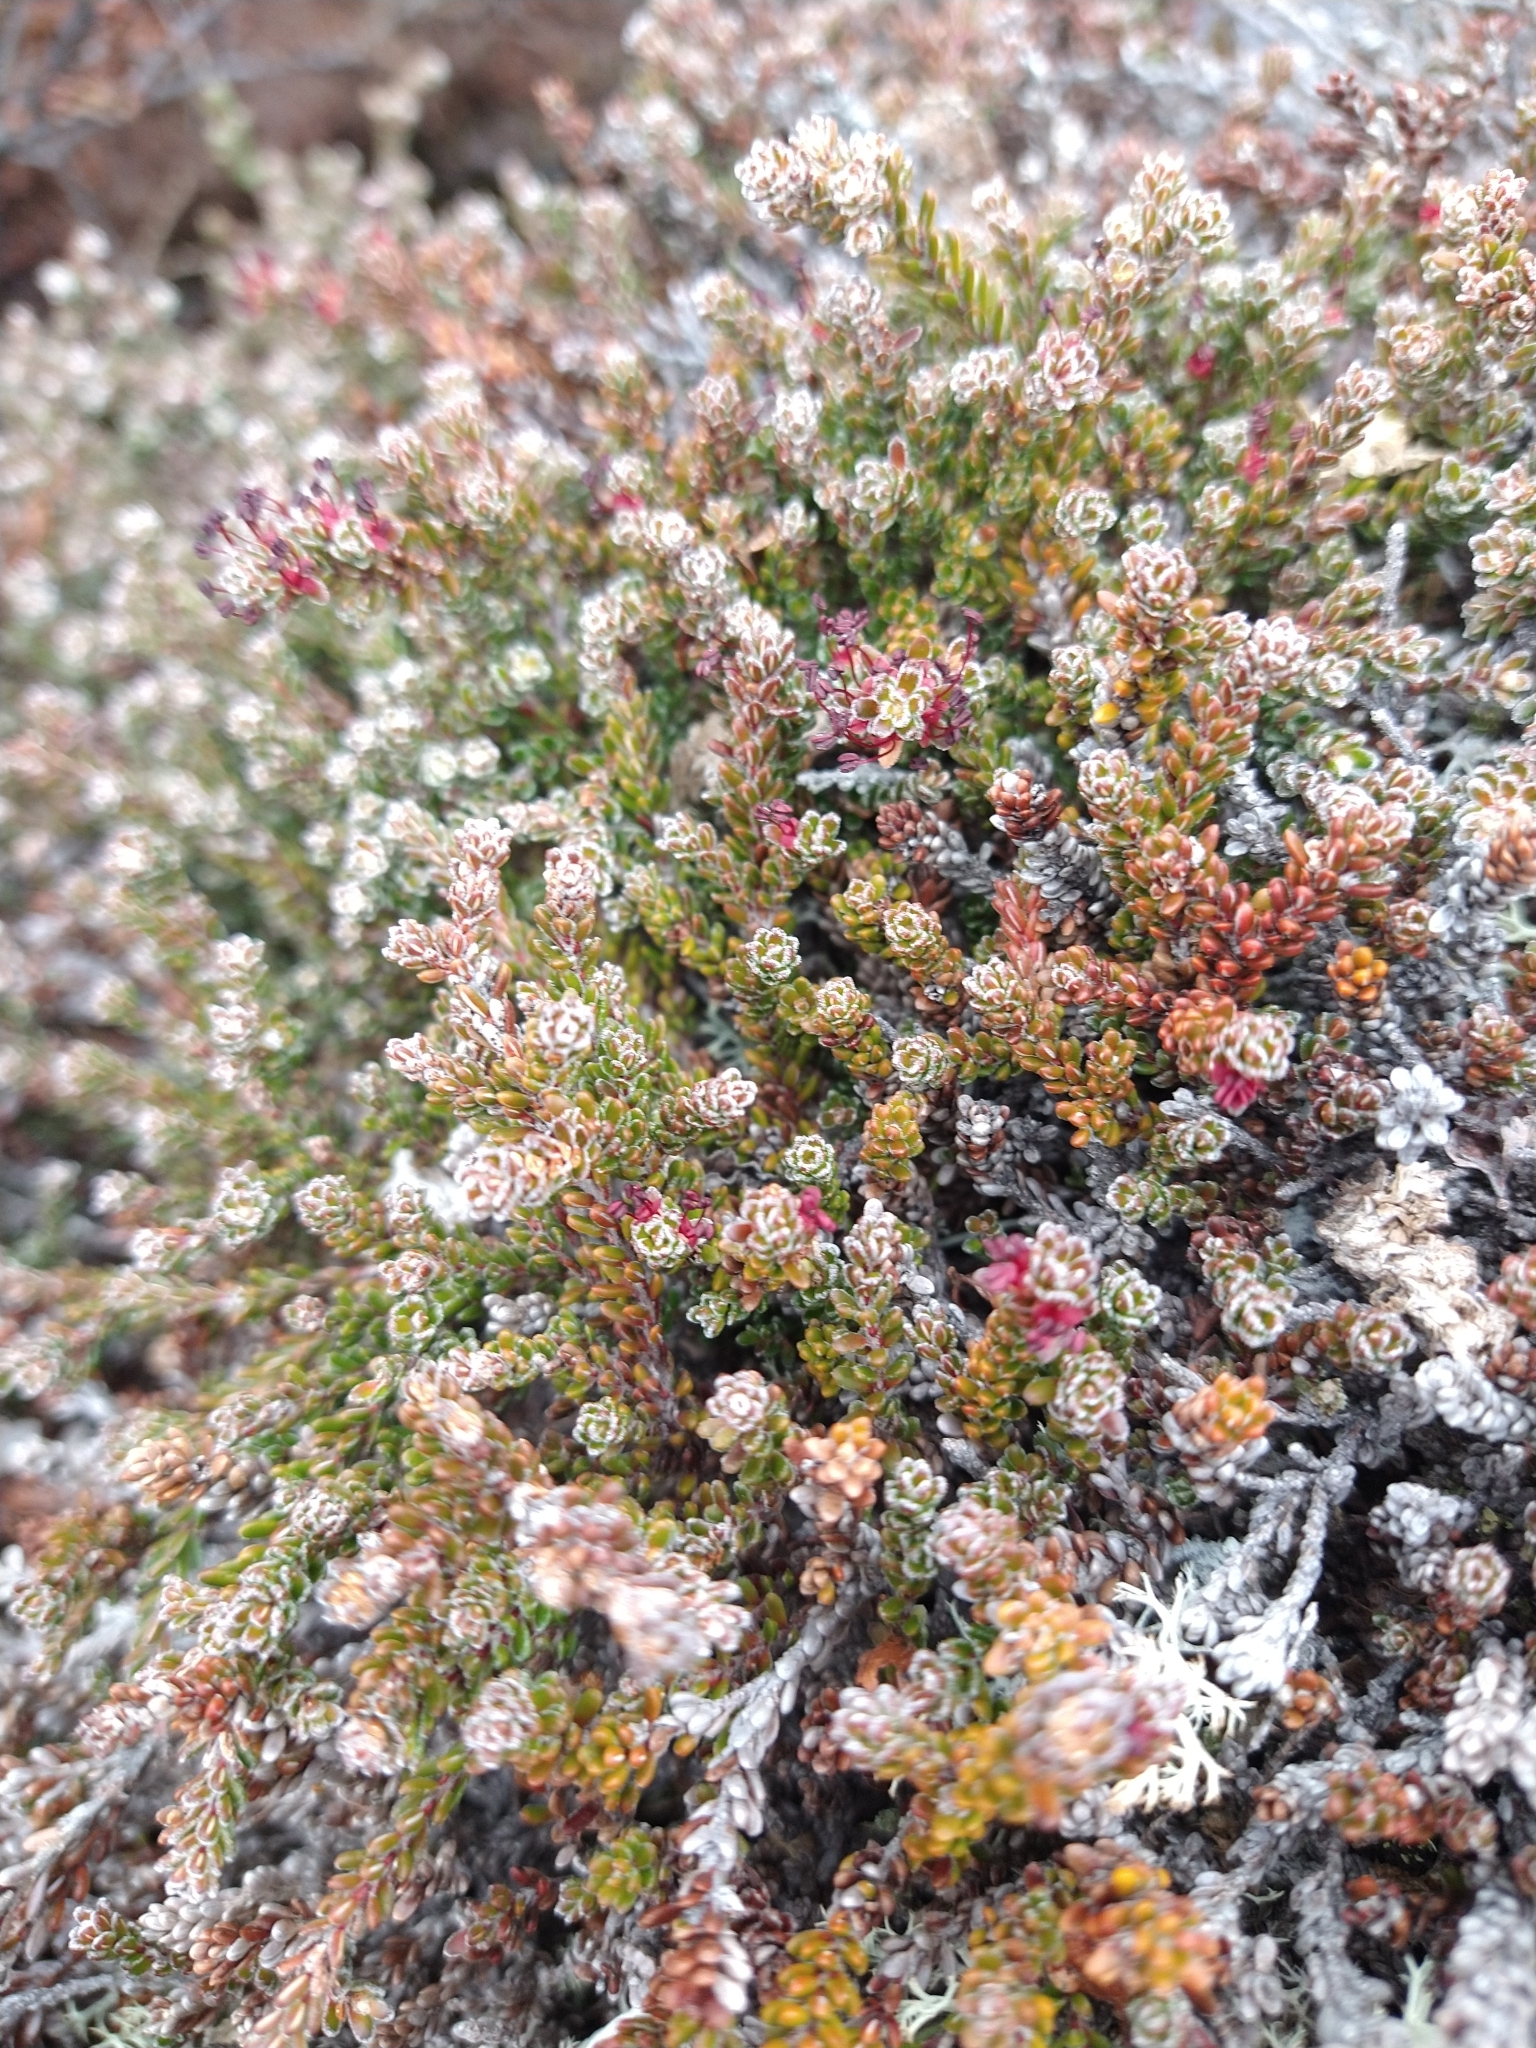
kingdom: Plantae
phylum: Tracheophyta
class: Magnoliopsida
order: Ericales
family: Ericaceae
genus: Empetrum
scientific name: Empetrum rubrum
